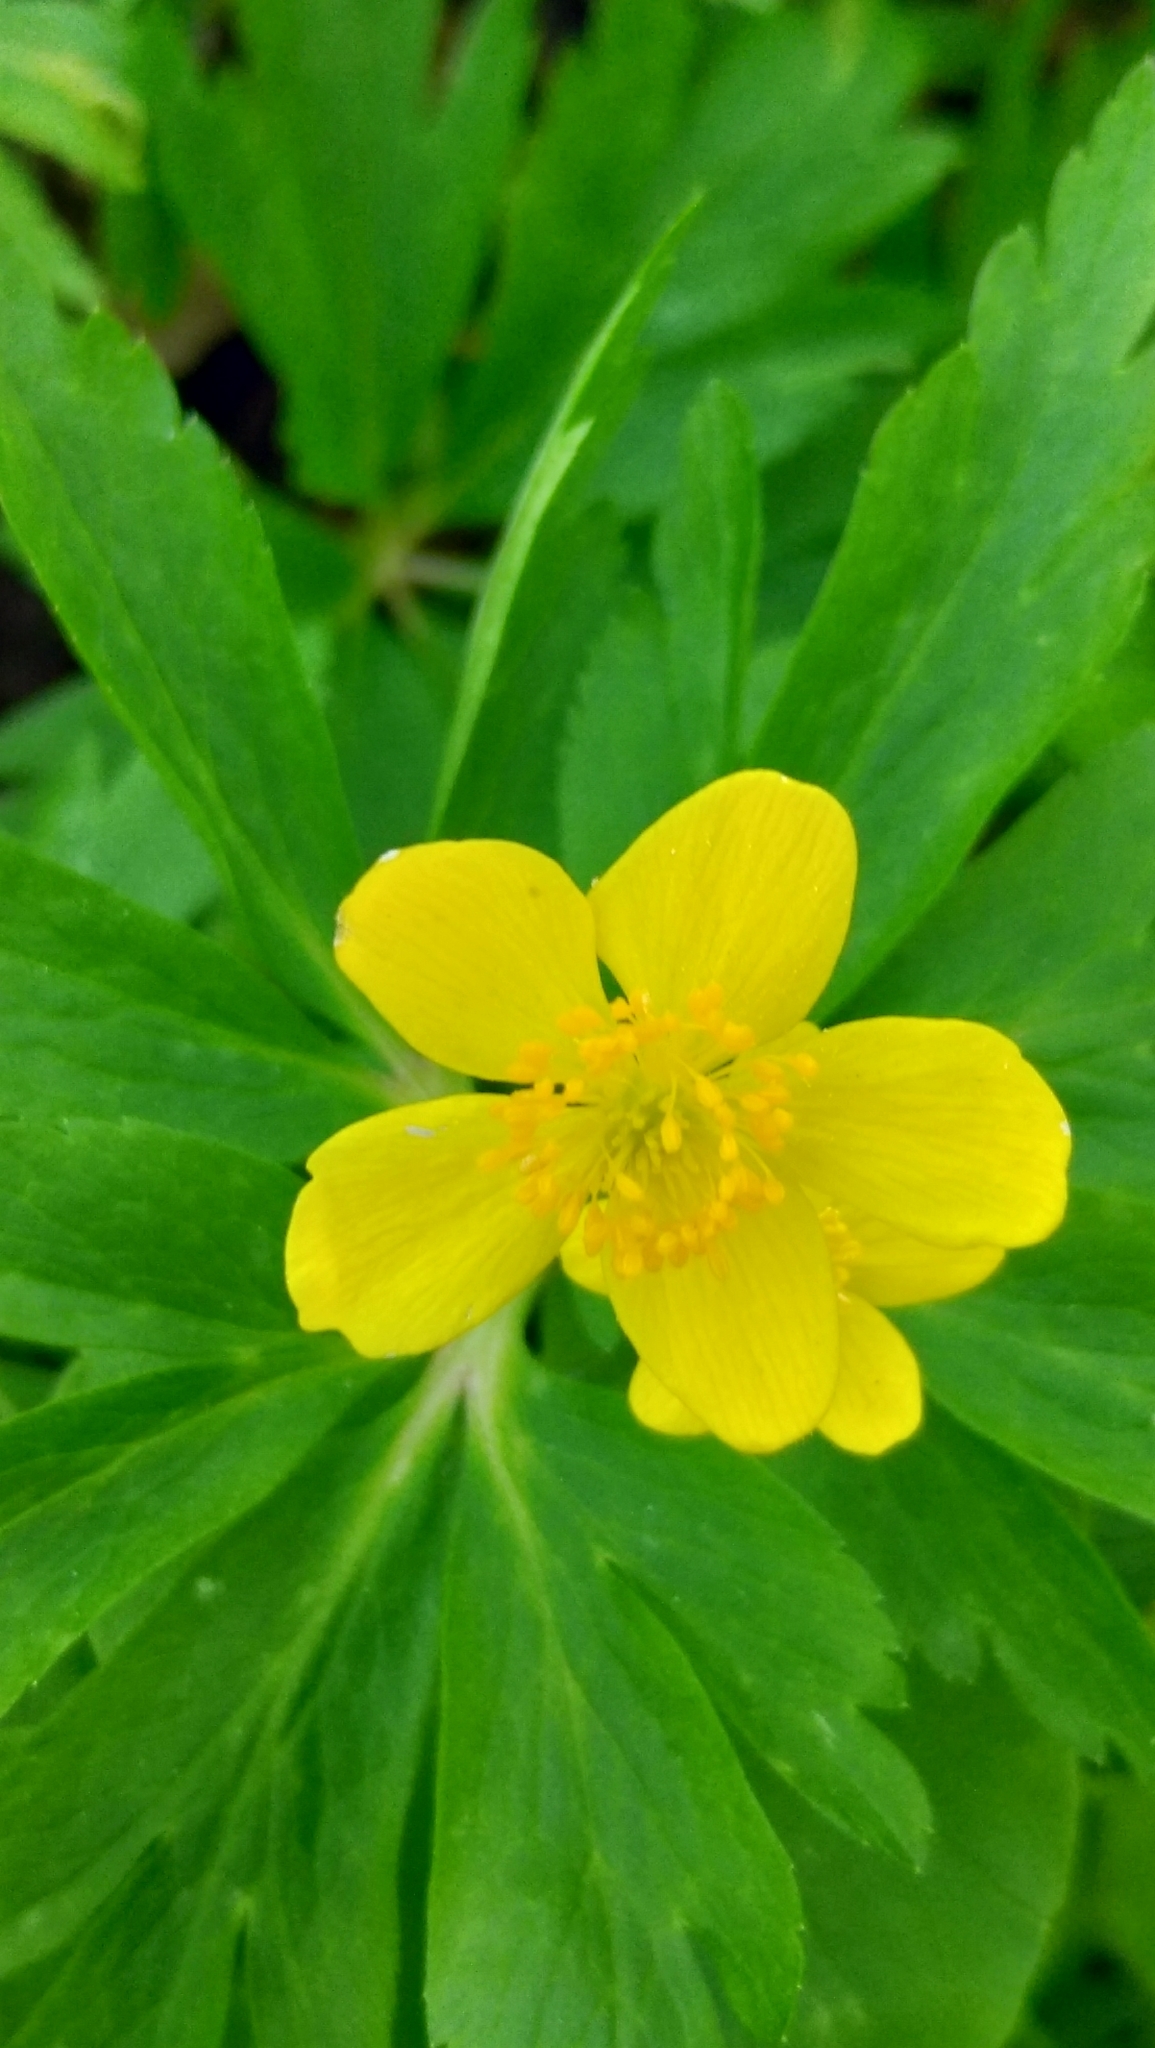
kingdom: Plantae
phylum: Tracheophyta
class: Magnoliopsida
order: Ranunculales
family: Ranunculaceae
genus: Anemone
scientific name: Anemone ranunculoides
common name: Yellow anemone
